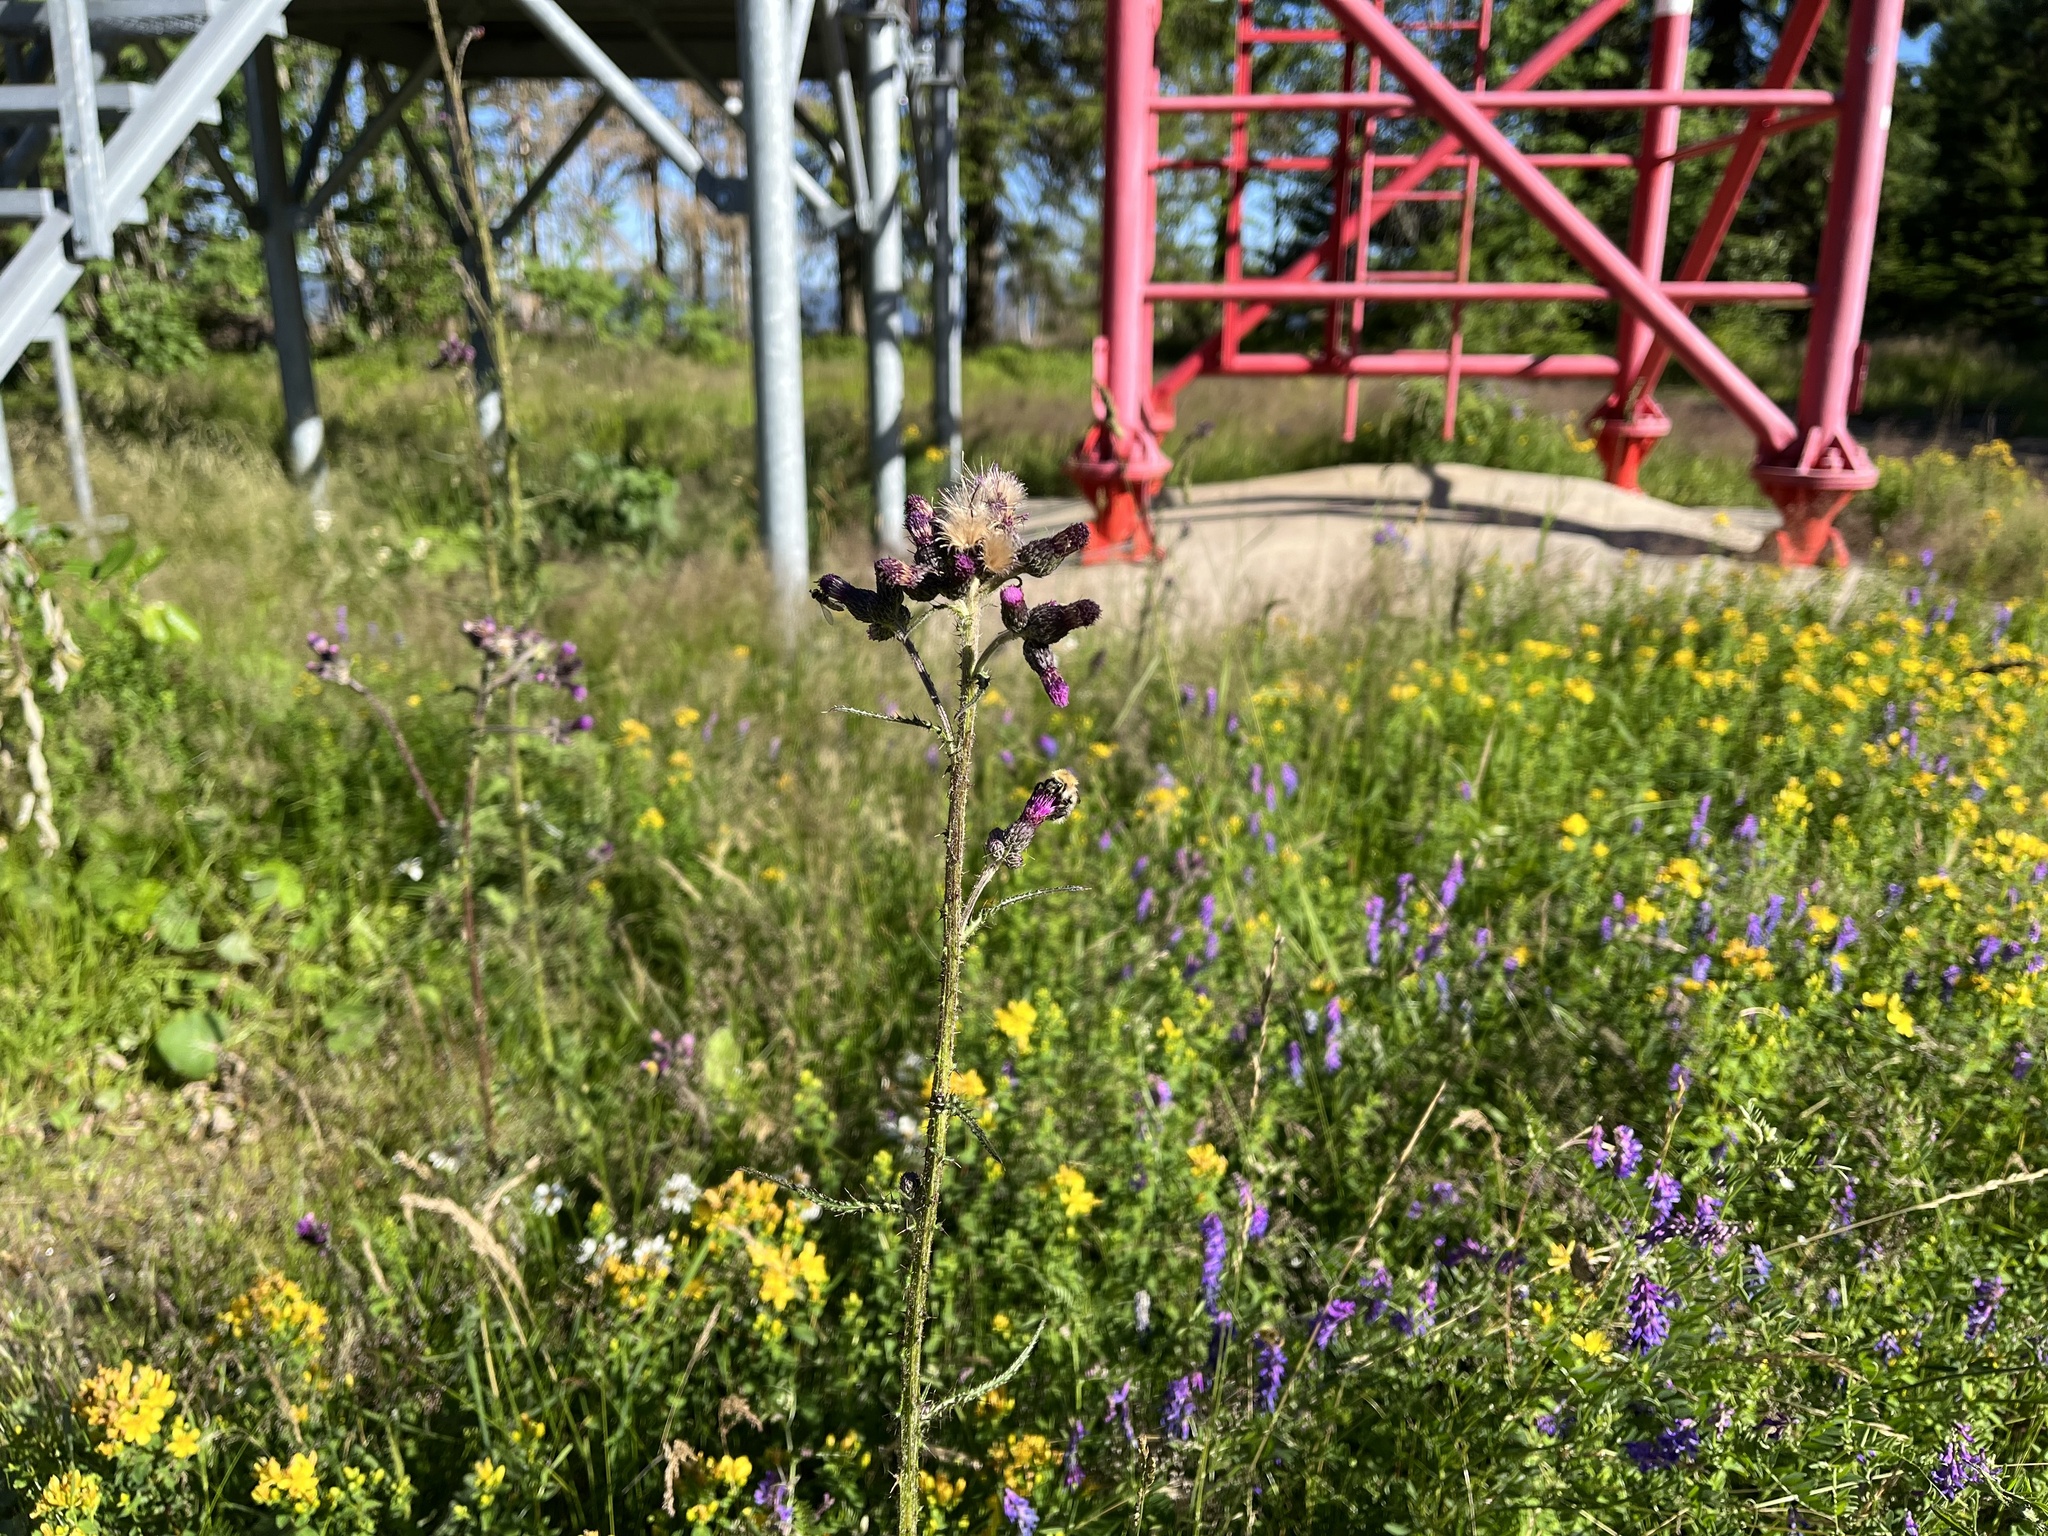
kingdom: Plantae
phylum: Tracheophyta
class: Magnoliopsida
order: Asterales
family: Asteraceae
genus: Cirsium
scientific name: Cirsium palustre
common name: Marsh thistle
